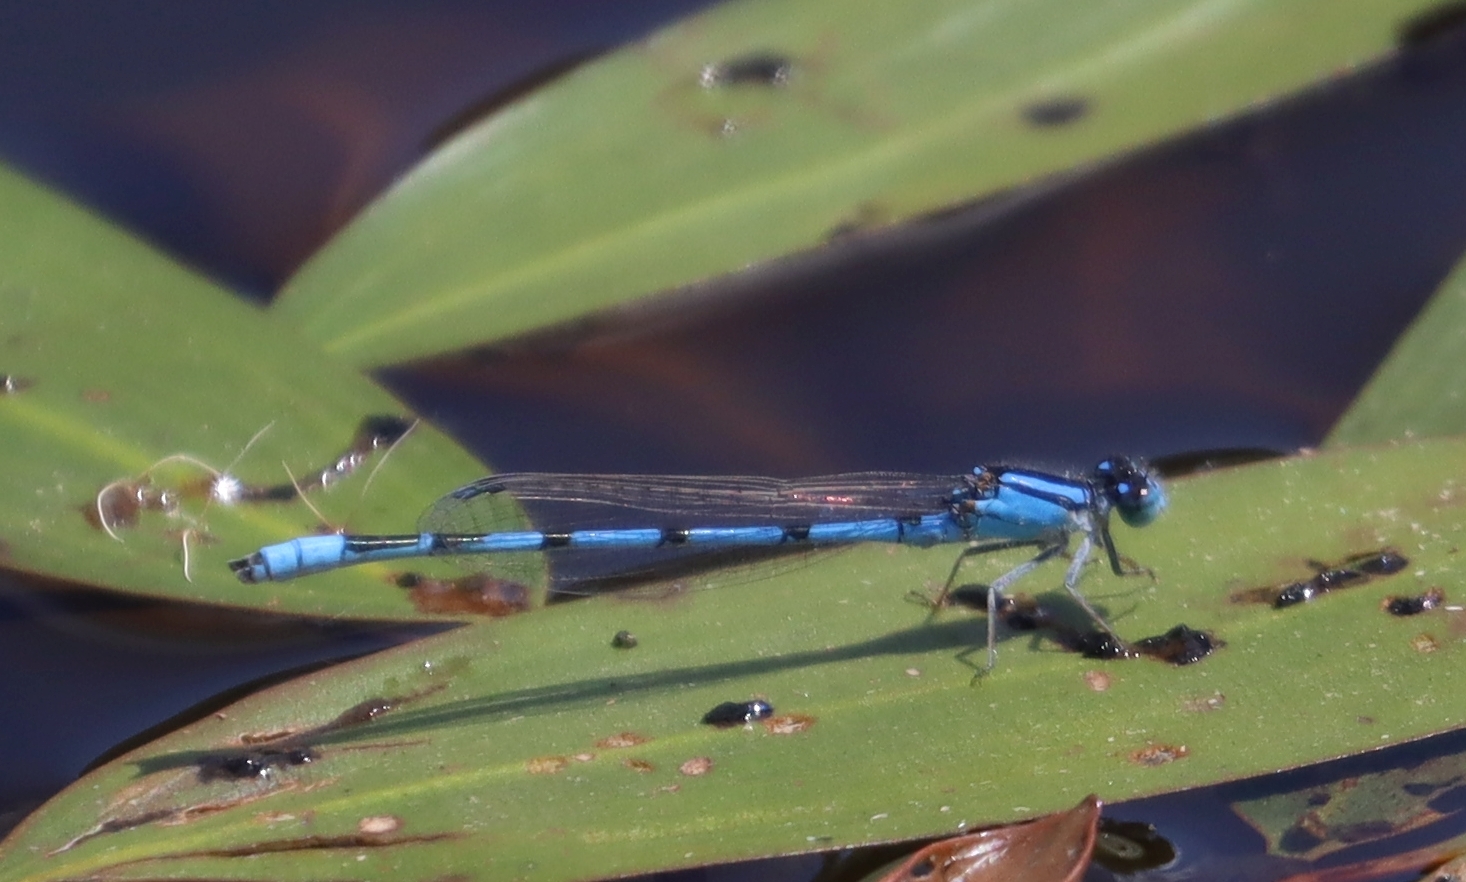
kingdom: Animalia
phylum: Arthropoda
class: Insecta
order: Odonata
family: Coenagrionidae
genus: Enallagma
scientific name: Enallagma civile
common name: Damselfly
